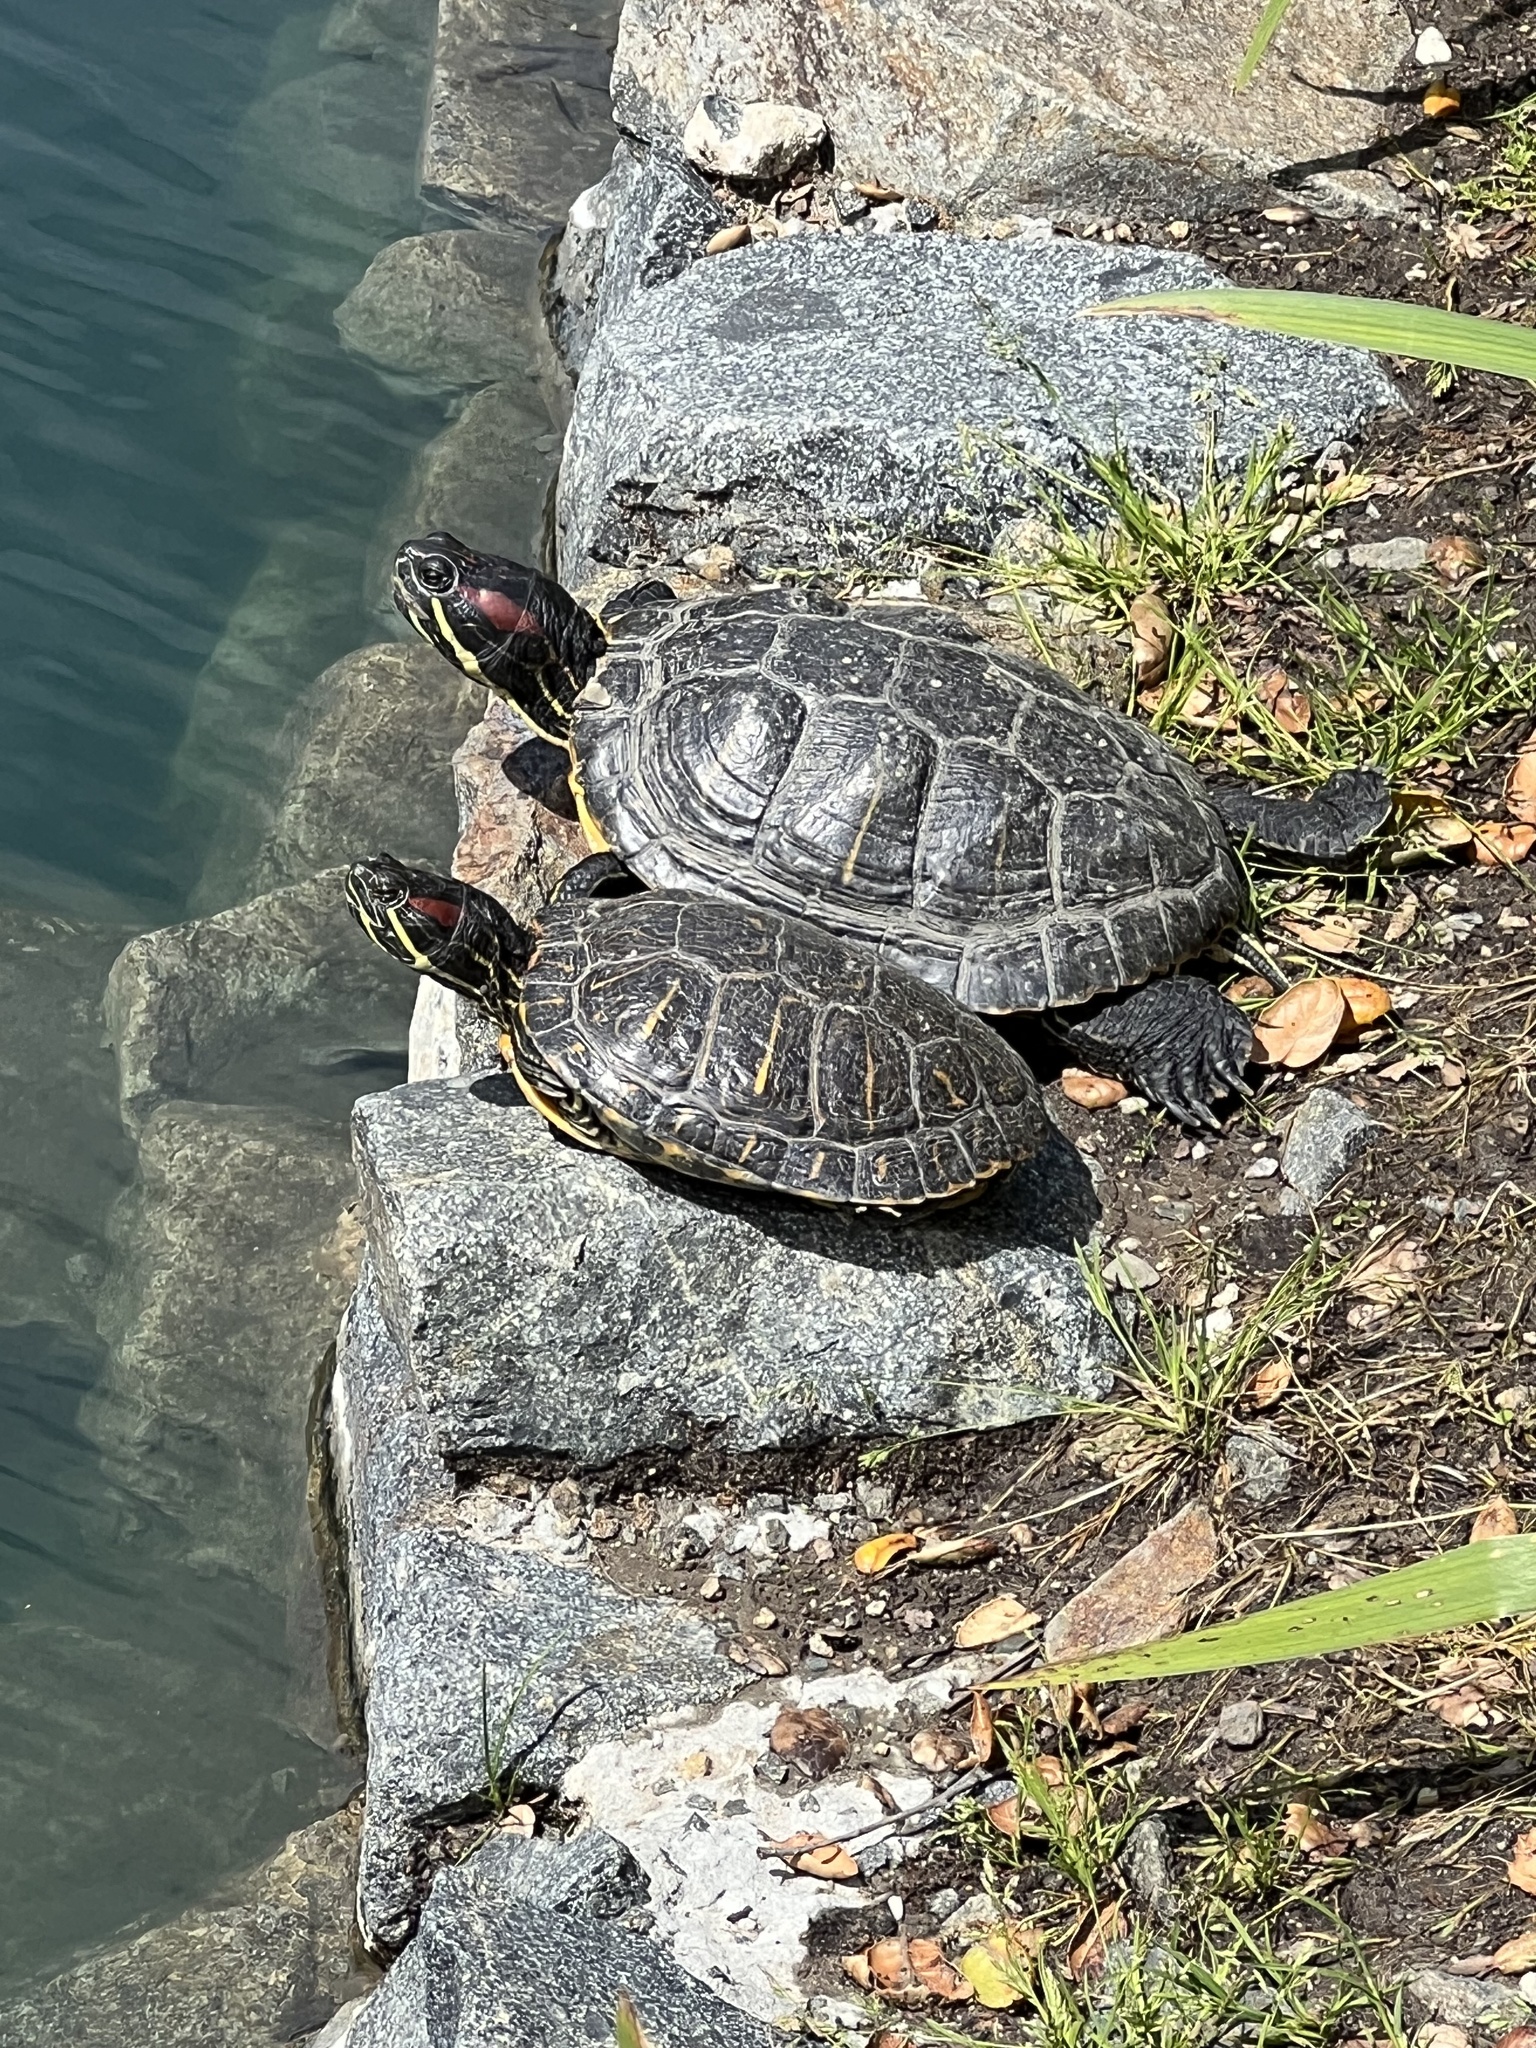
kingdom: Animalia
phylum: Chordata
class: Testudines
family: Emydidae
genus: Trachemys
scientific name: Trachemys scripta
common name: Slider
